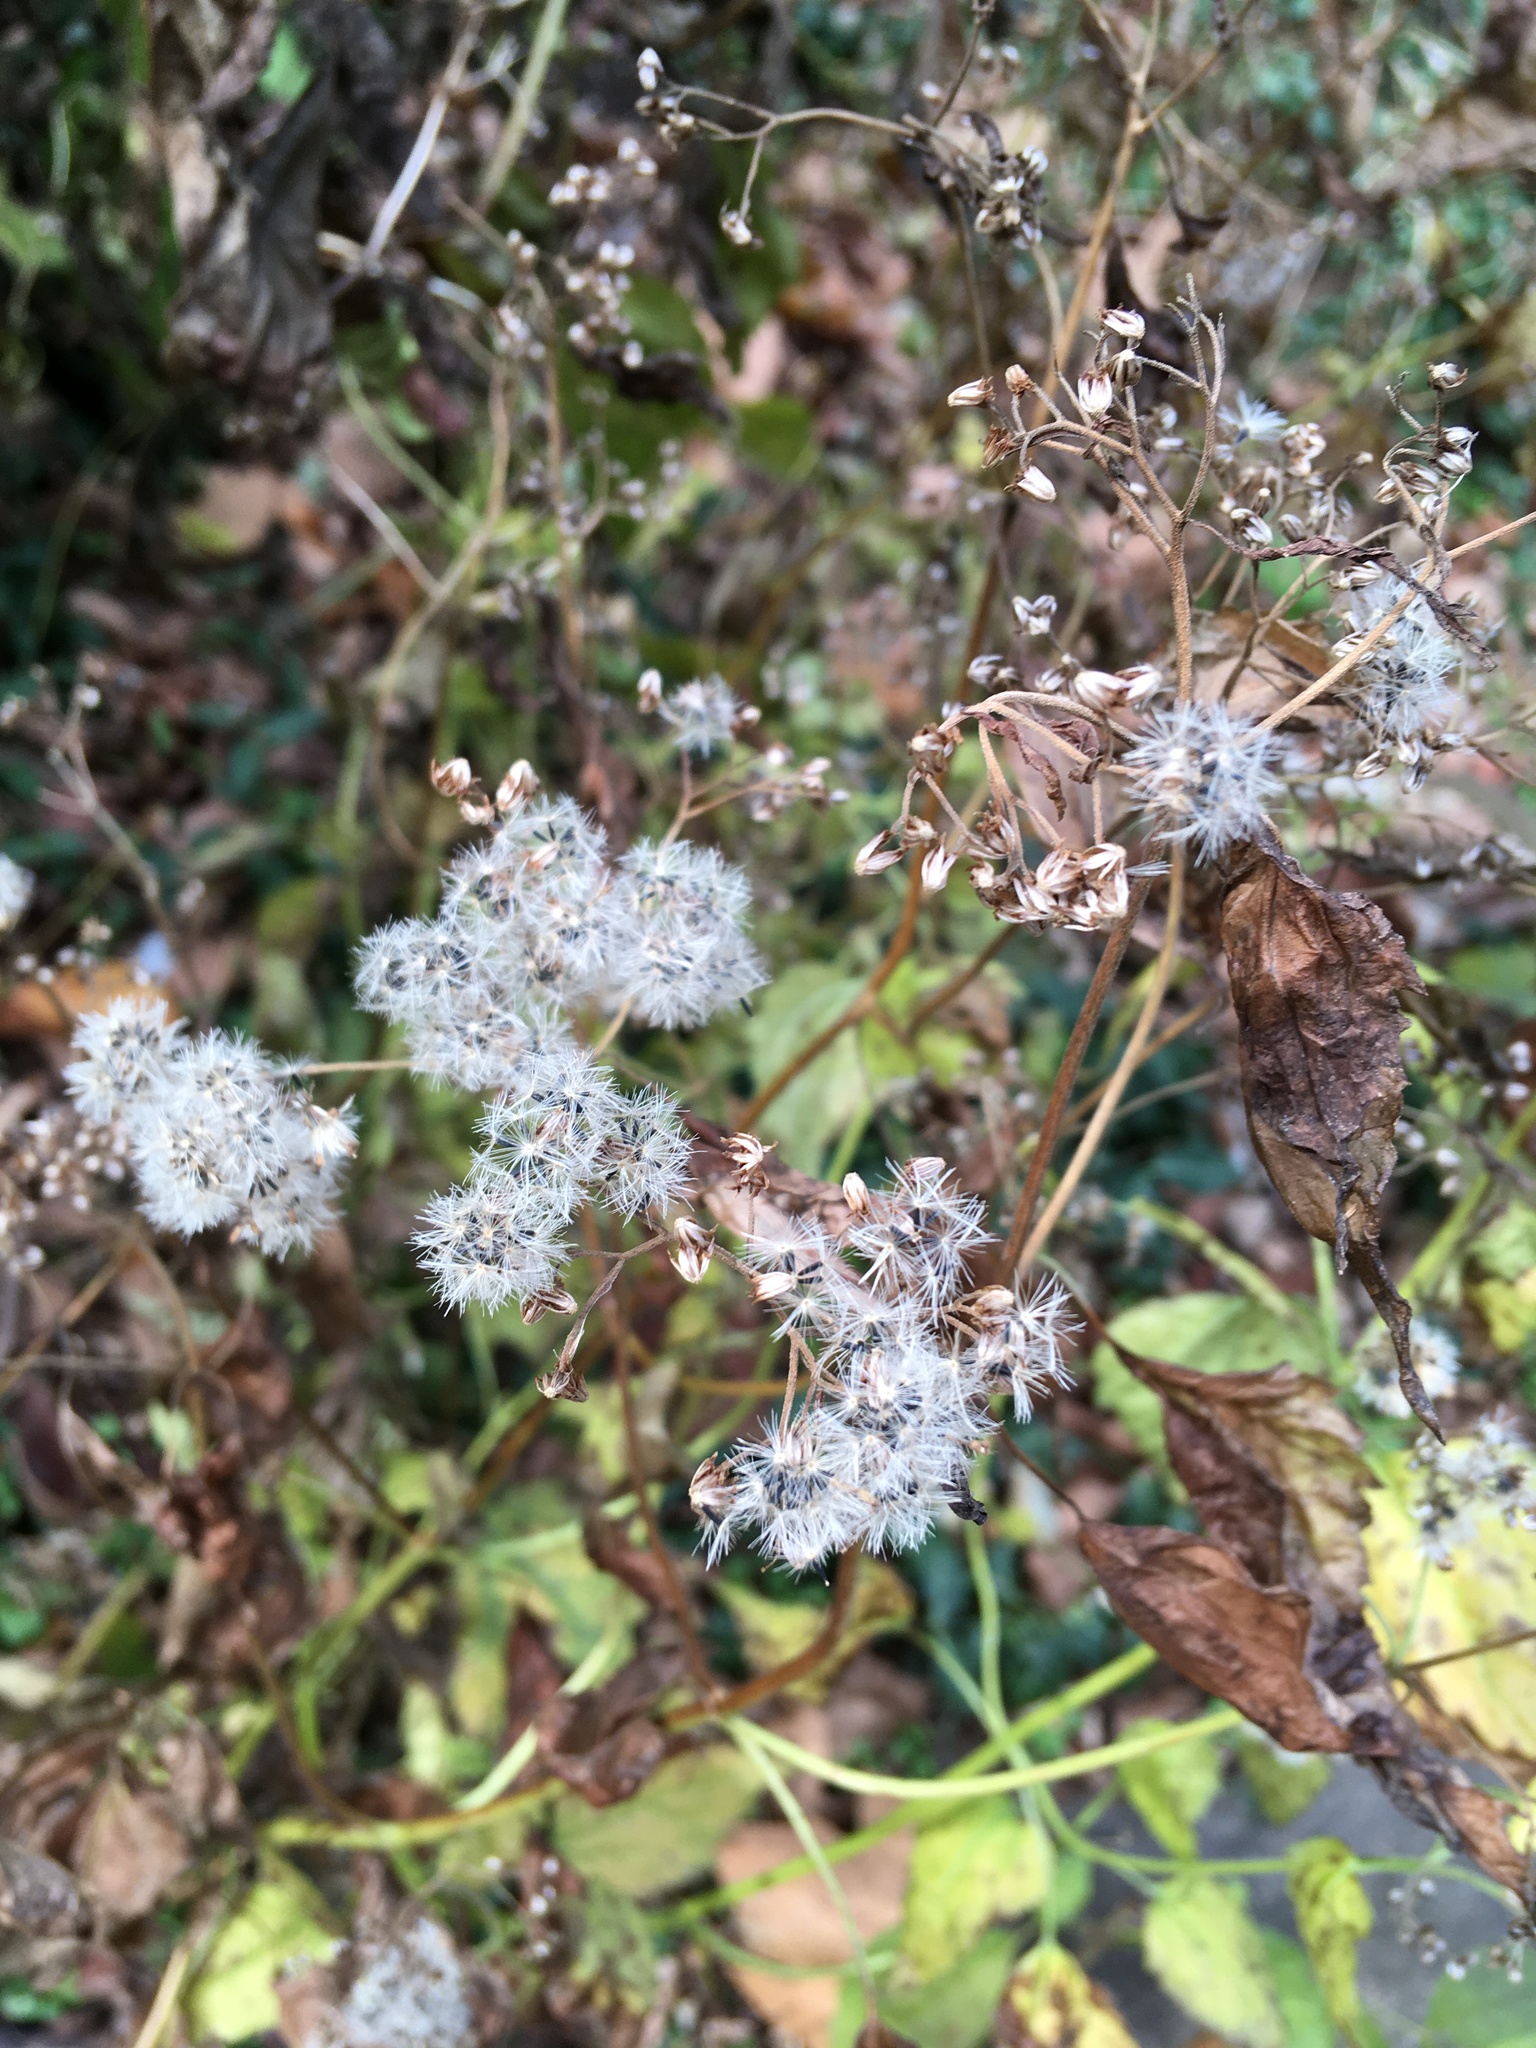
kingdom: Plantae
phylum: Tracheophyta
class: Magnoliopsida
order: Asterales
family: Asteraceae
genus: Ageratina
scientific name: Ageratina altissima
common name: White snakeroot
